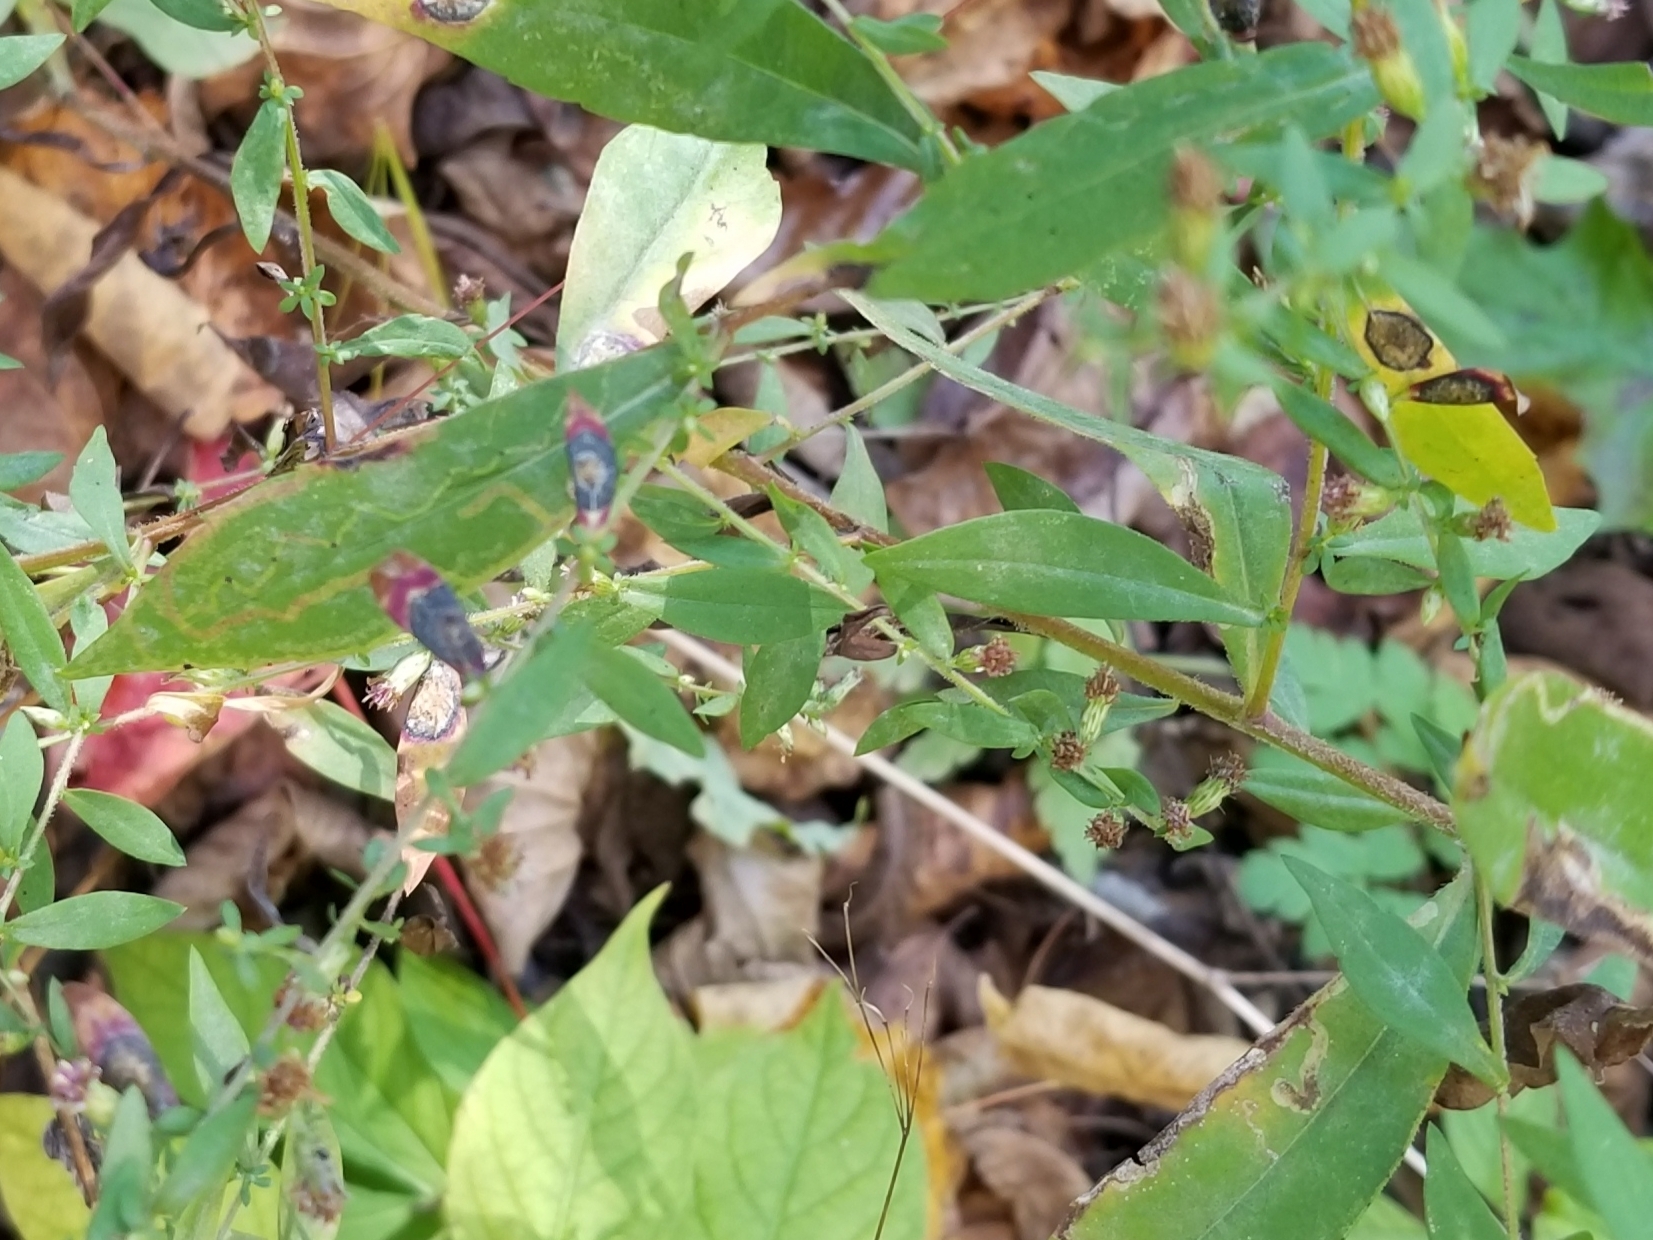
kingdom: Animalia
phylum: Arthropoda
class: Insecta
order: Diptera
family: Cecidomyiidae
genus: Asteromyia
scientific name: Asteromyia laeviana
